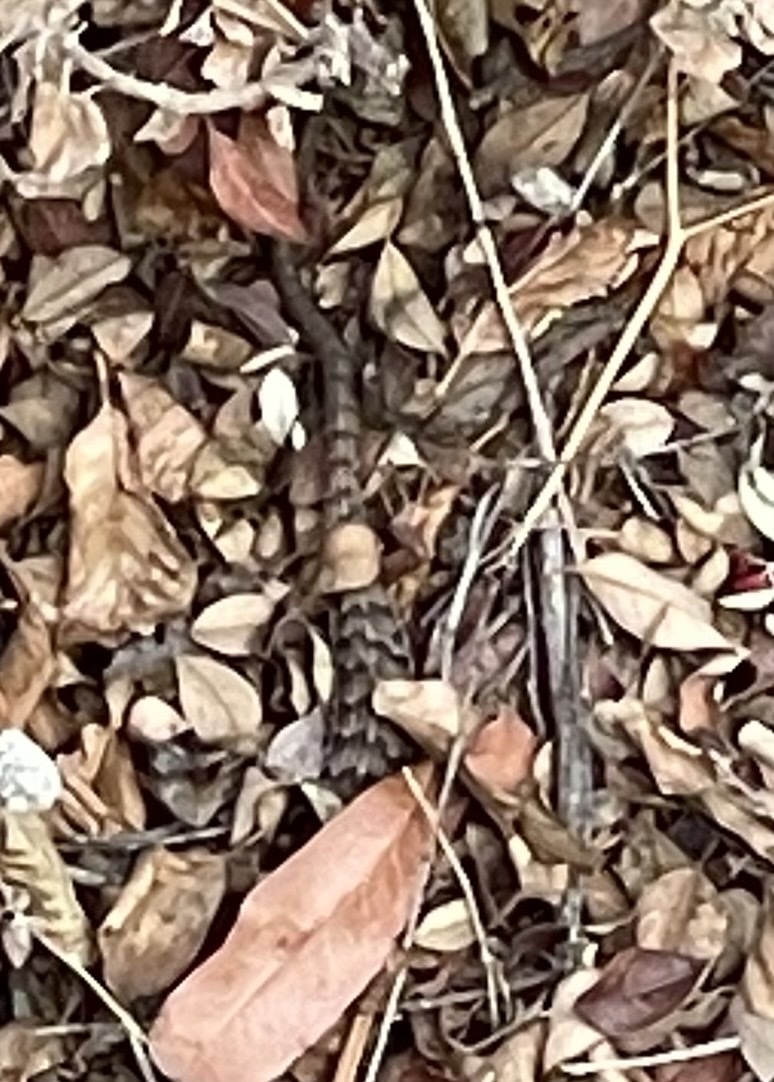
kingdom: Animalia
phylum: Chordata
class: Squamata
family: Anguidae
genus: Elgaria
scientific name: Elgaria multicarinata
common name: Southern alligator lizard
